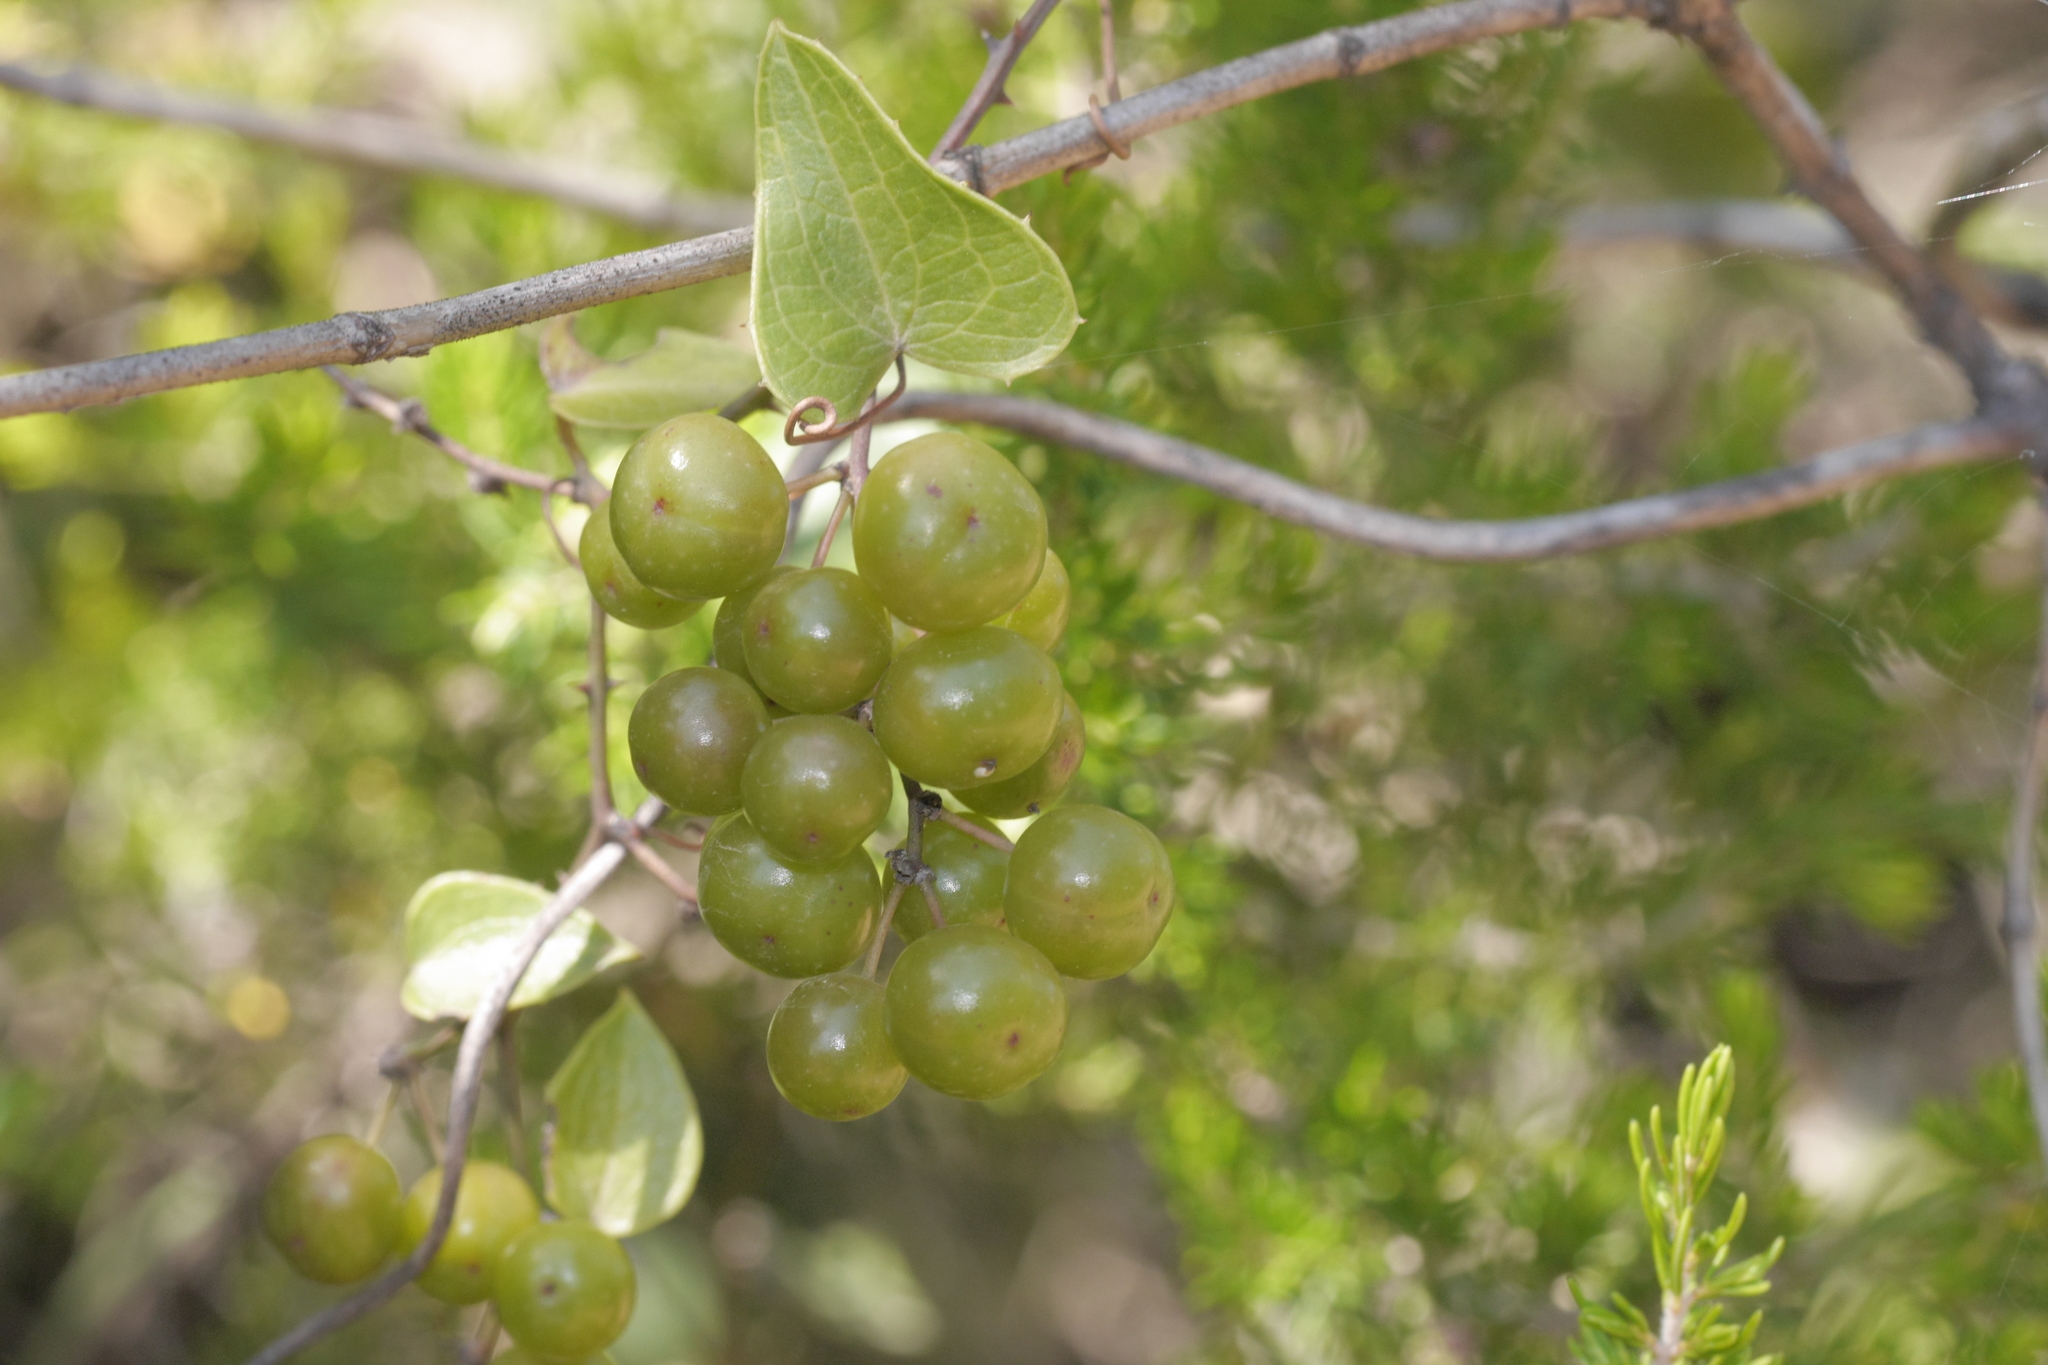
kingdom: Plantae
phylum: Tracheophyta
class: Liliopsida
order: Liliales
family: Smilacaceae
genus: Smilax
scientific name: Smilax aspera
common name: Common smilax
